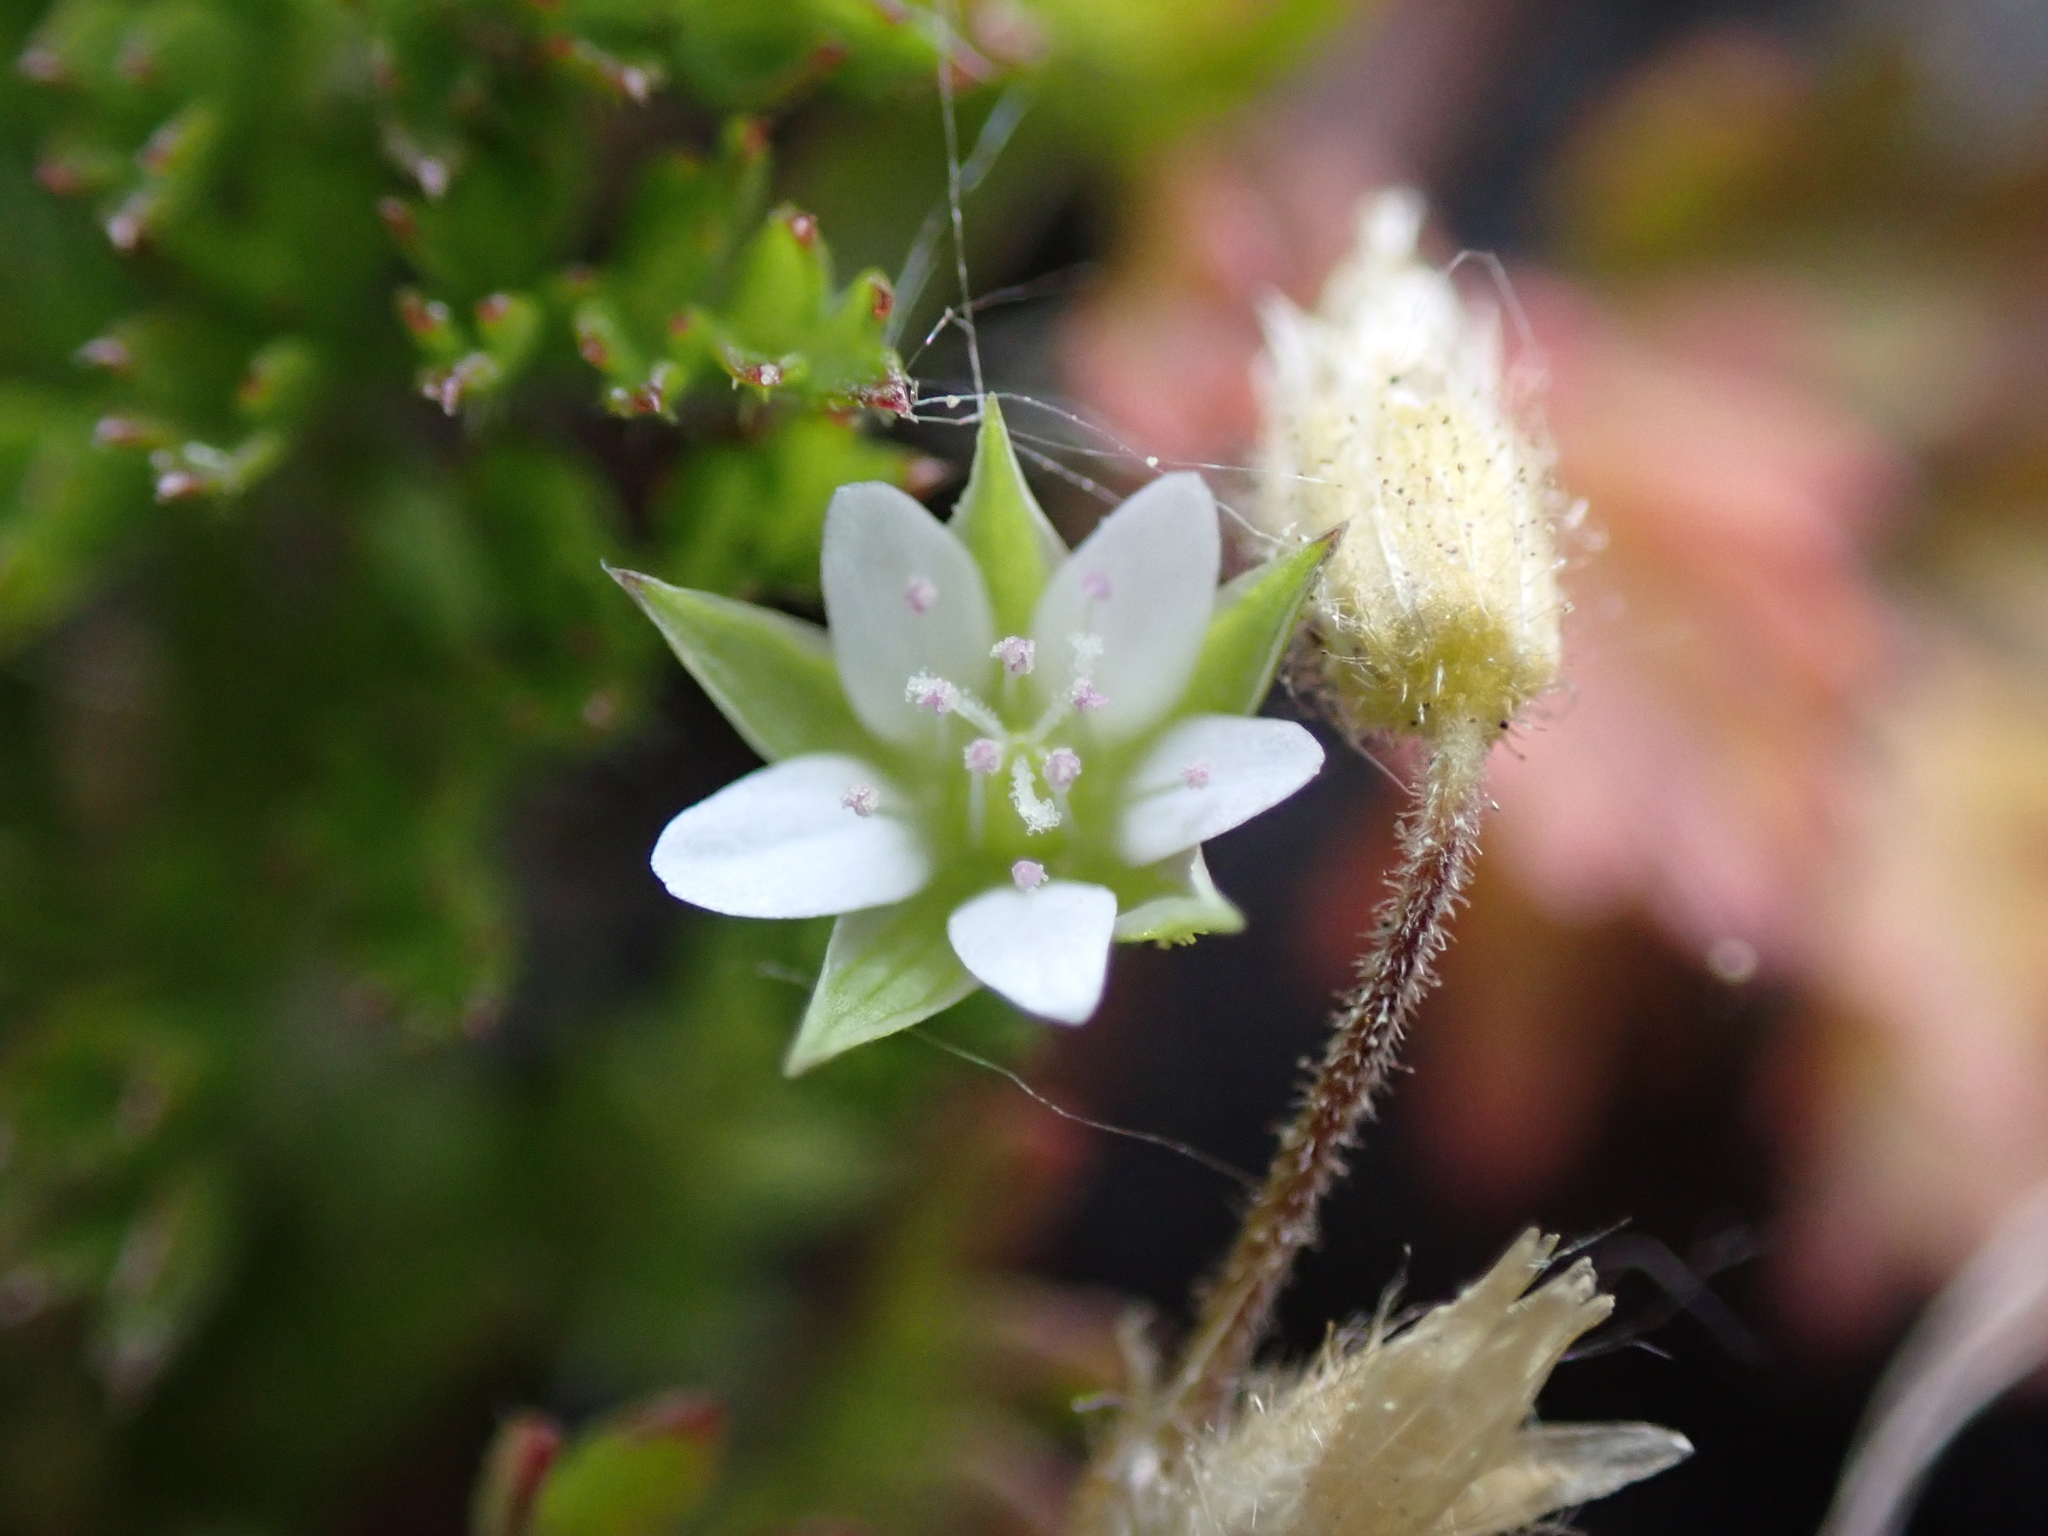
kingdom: Plantae
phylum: Tracheophyta
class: Magnoliopsida
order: Caryophyllales
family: Caryophyllaceae
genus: Arenaria
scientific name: Arenaria serpyllifolia
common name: Thyme-leaved sandwort
